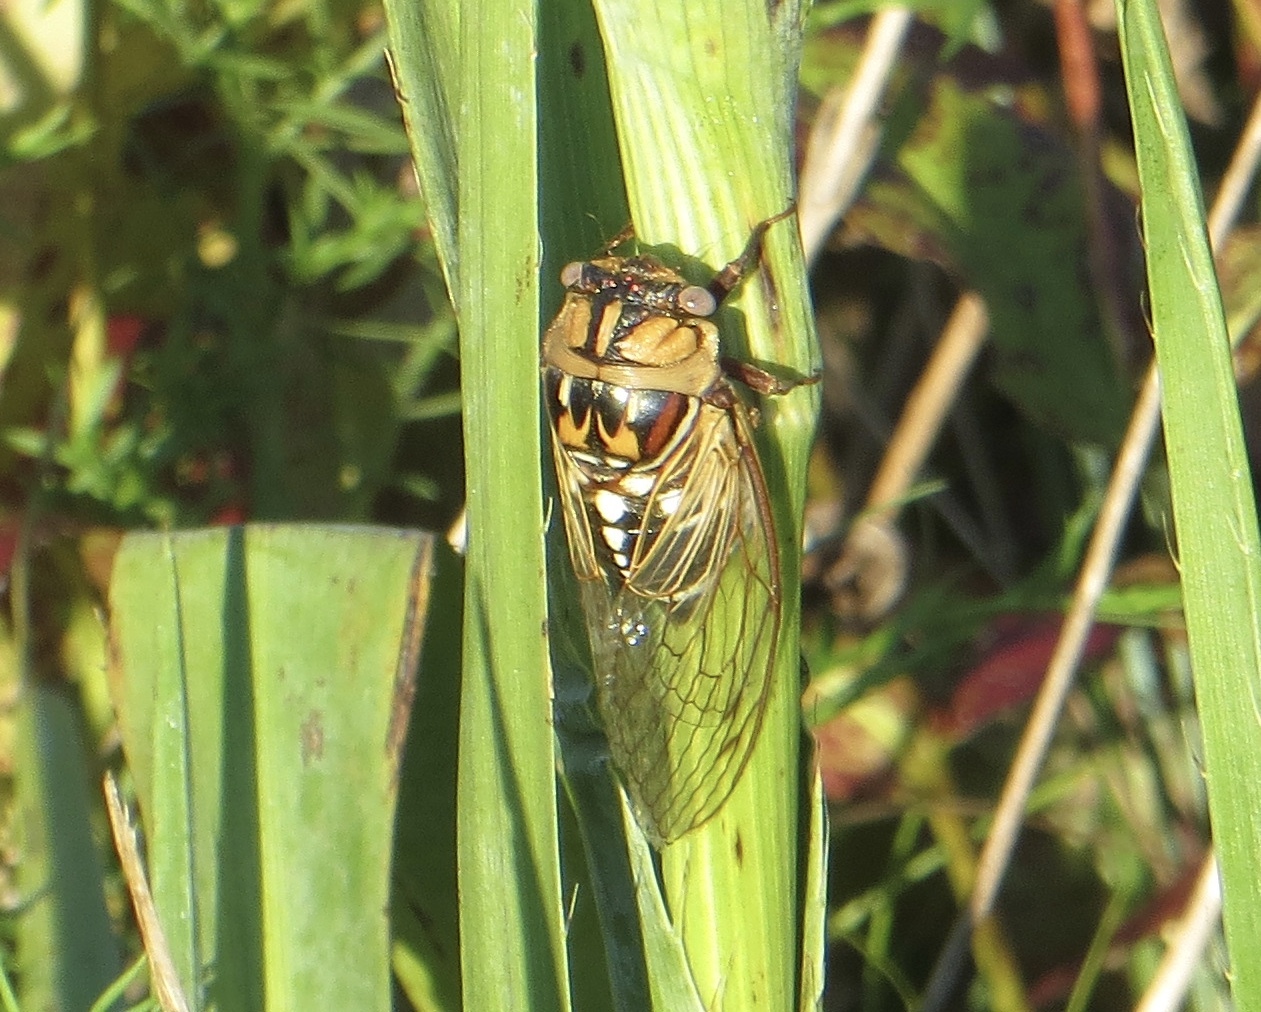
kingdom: Animalia
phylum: Arthropoda
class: Insecta
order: Hemiptera
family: Cicadidae
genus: Megatibicen
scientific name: Megatibicen dorsatus
